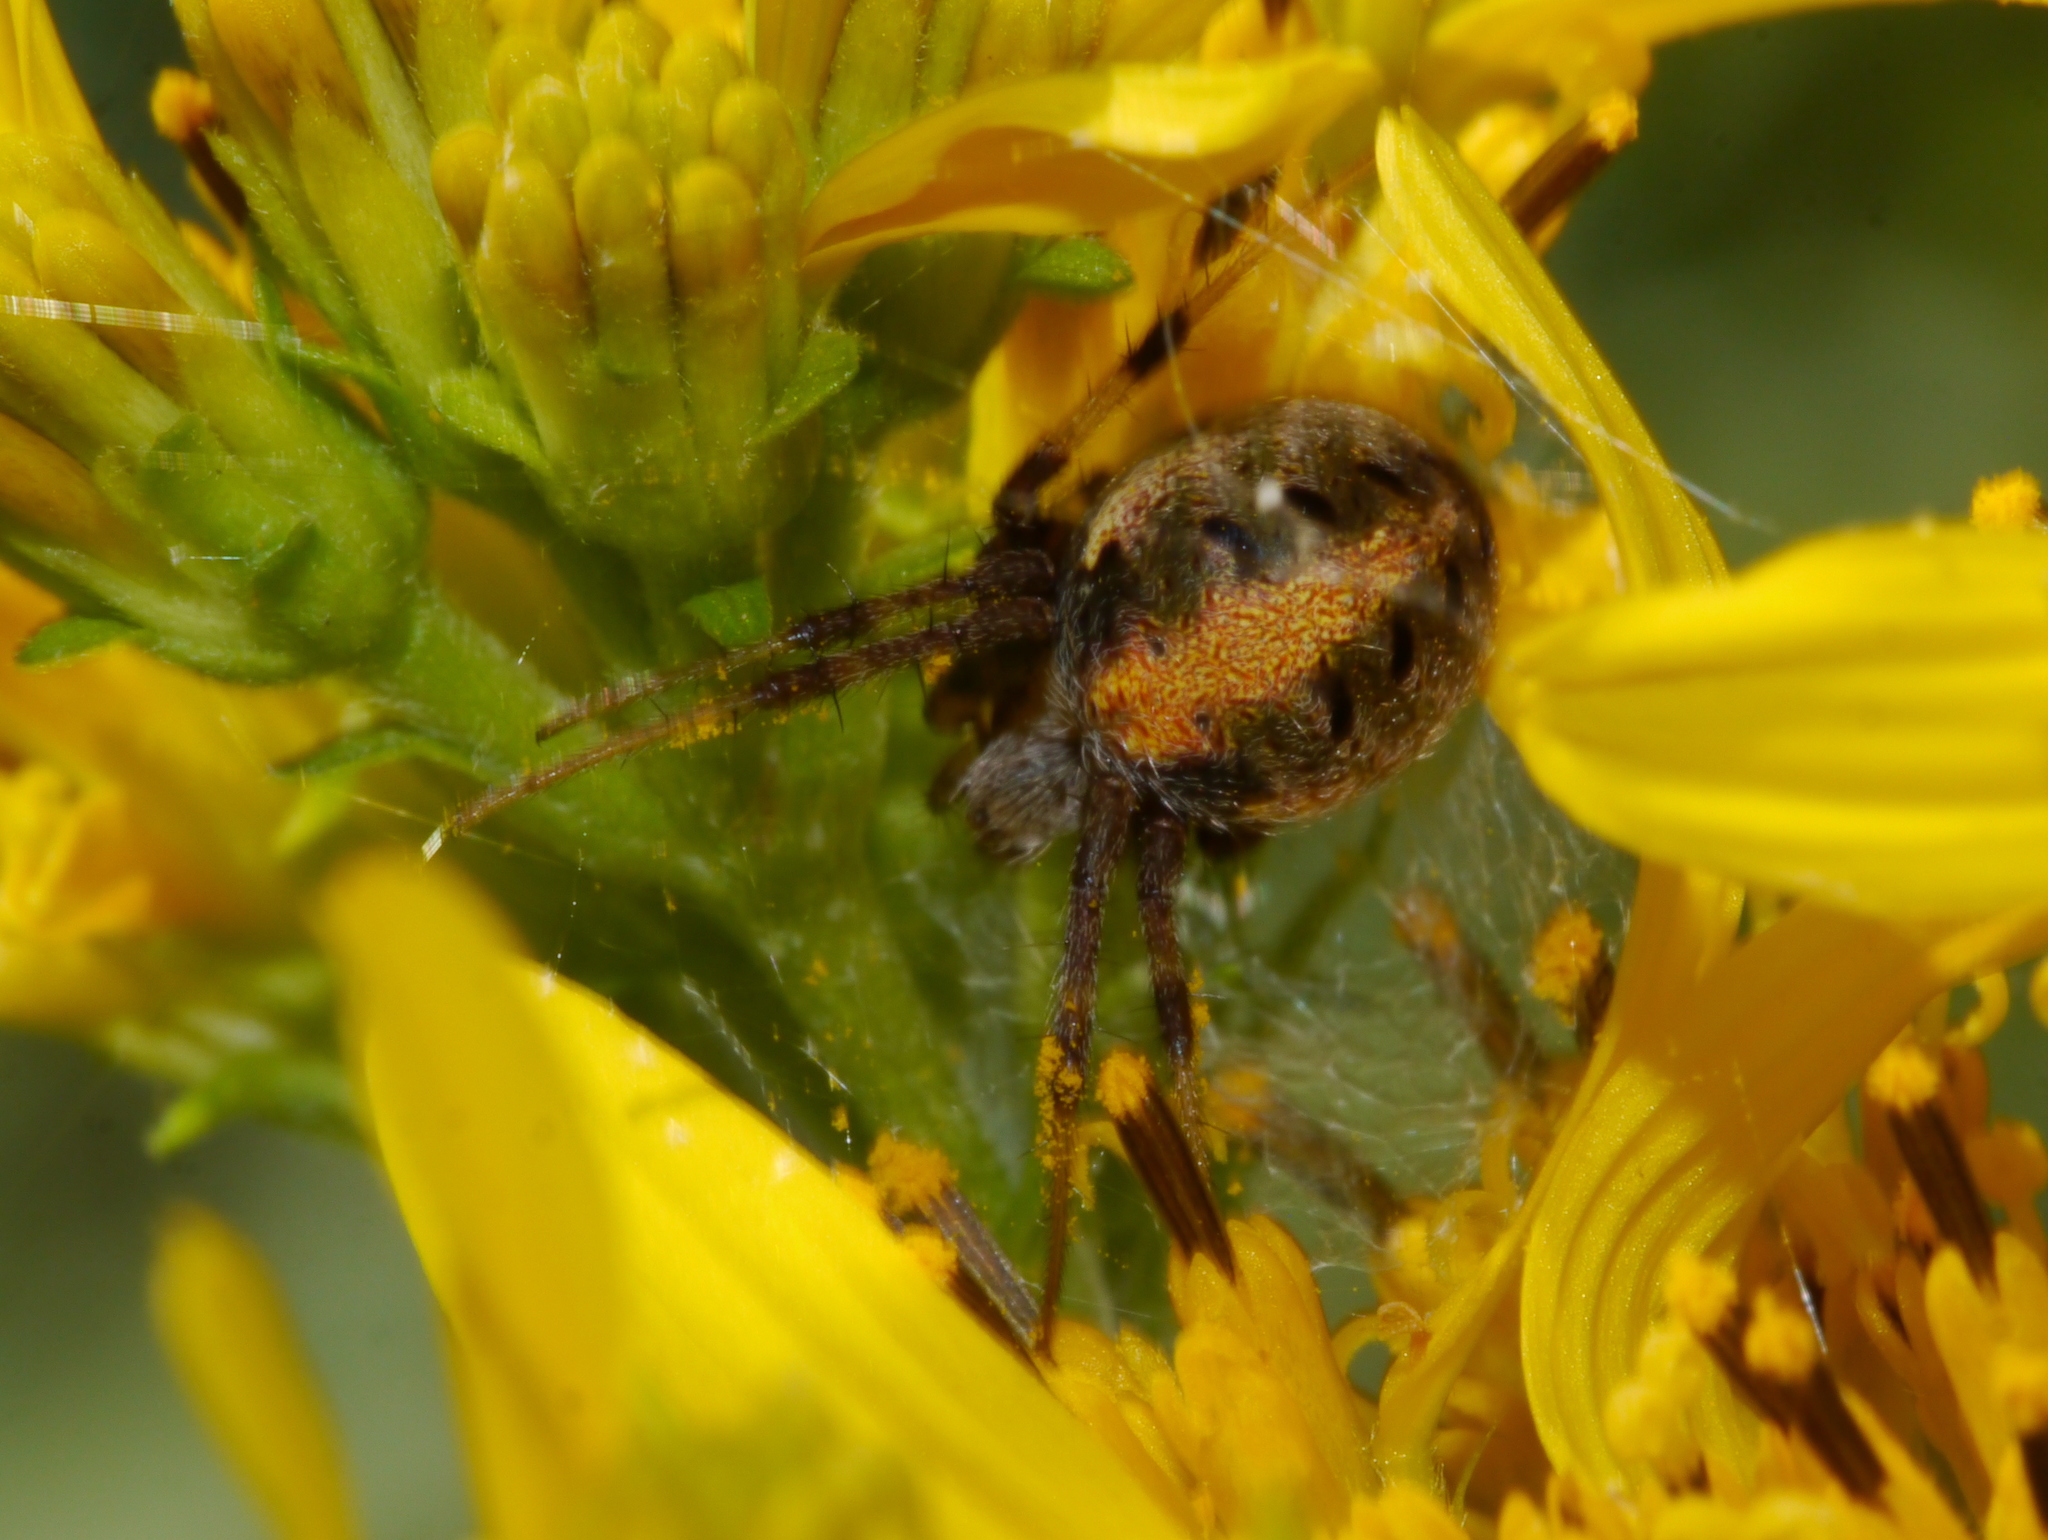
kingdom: Animalia
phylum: Arthropoda
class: Arachnida
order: Araneae
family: Araneidae
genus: Neoscona
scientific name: Neoscona arabesca
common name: Orb weavers
